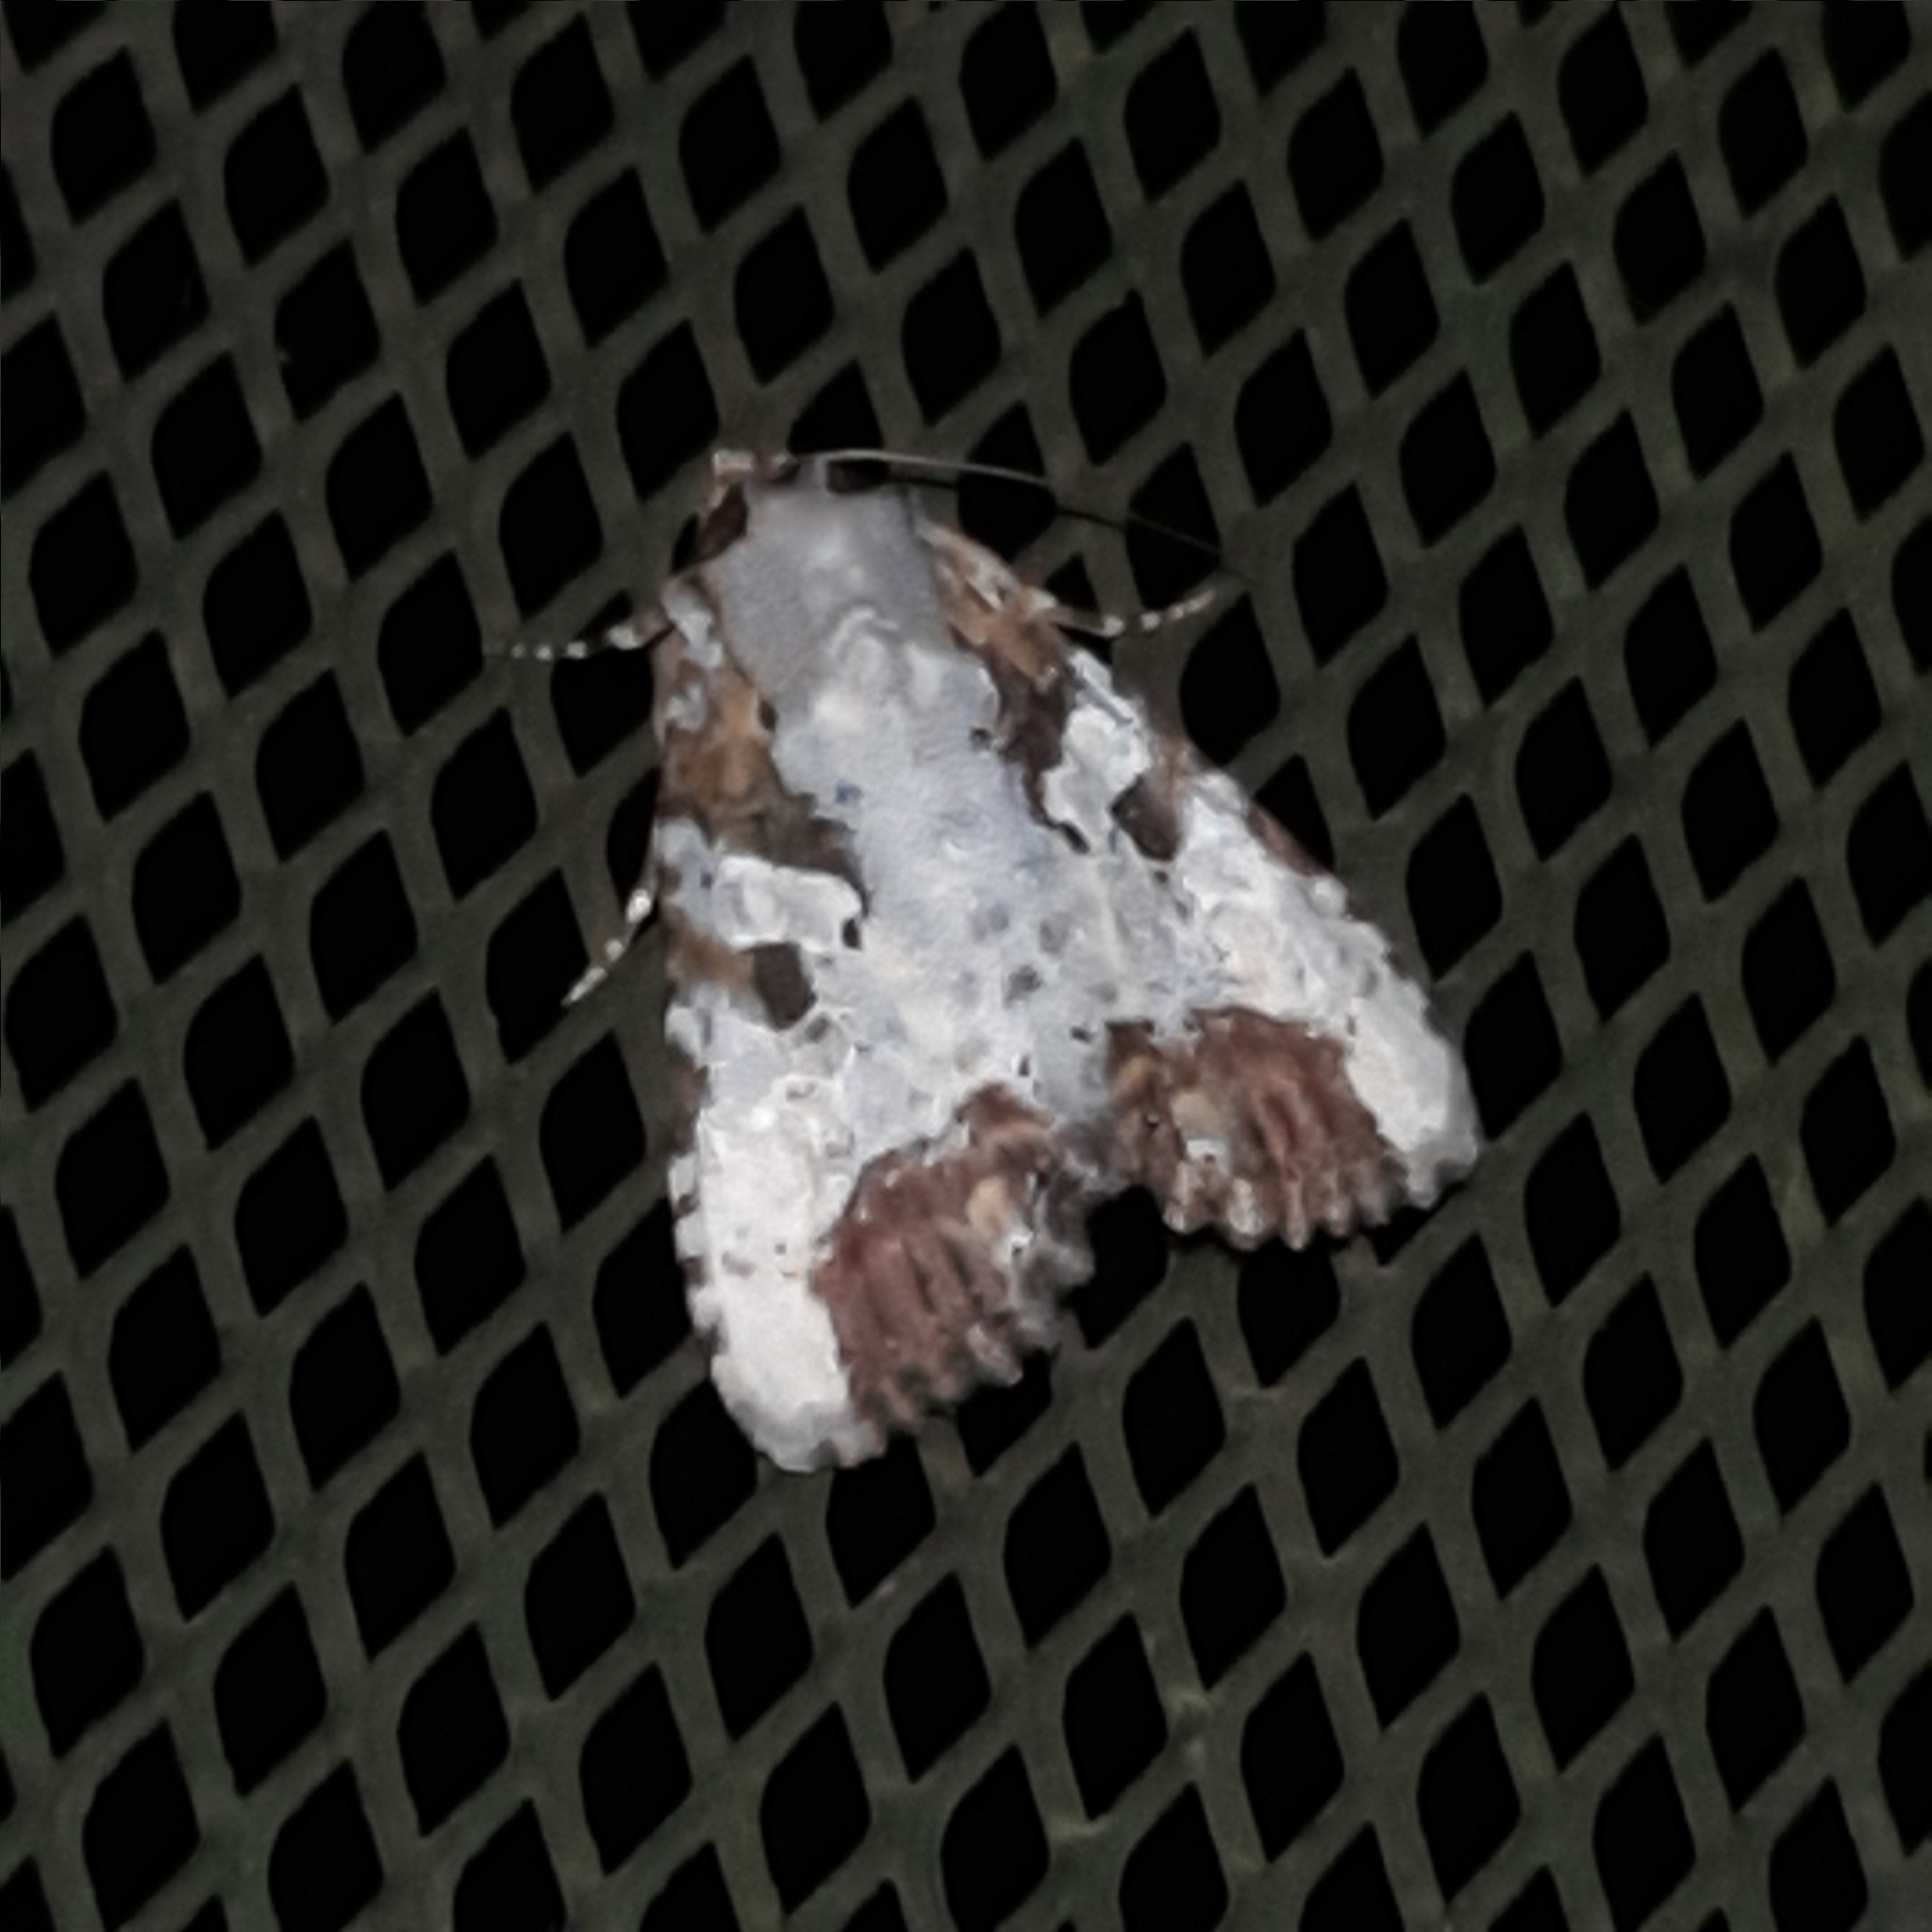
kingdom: Animalia
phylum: Arthropoda
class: Insecta
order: Lepidoptera
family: Noctuidae
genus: Condica
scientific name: Condica hippia
